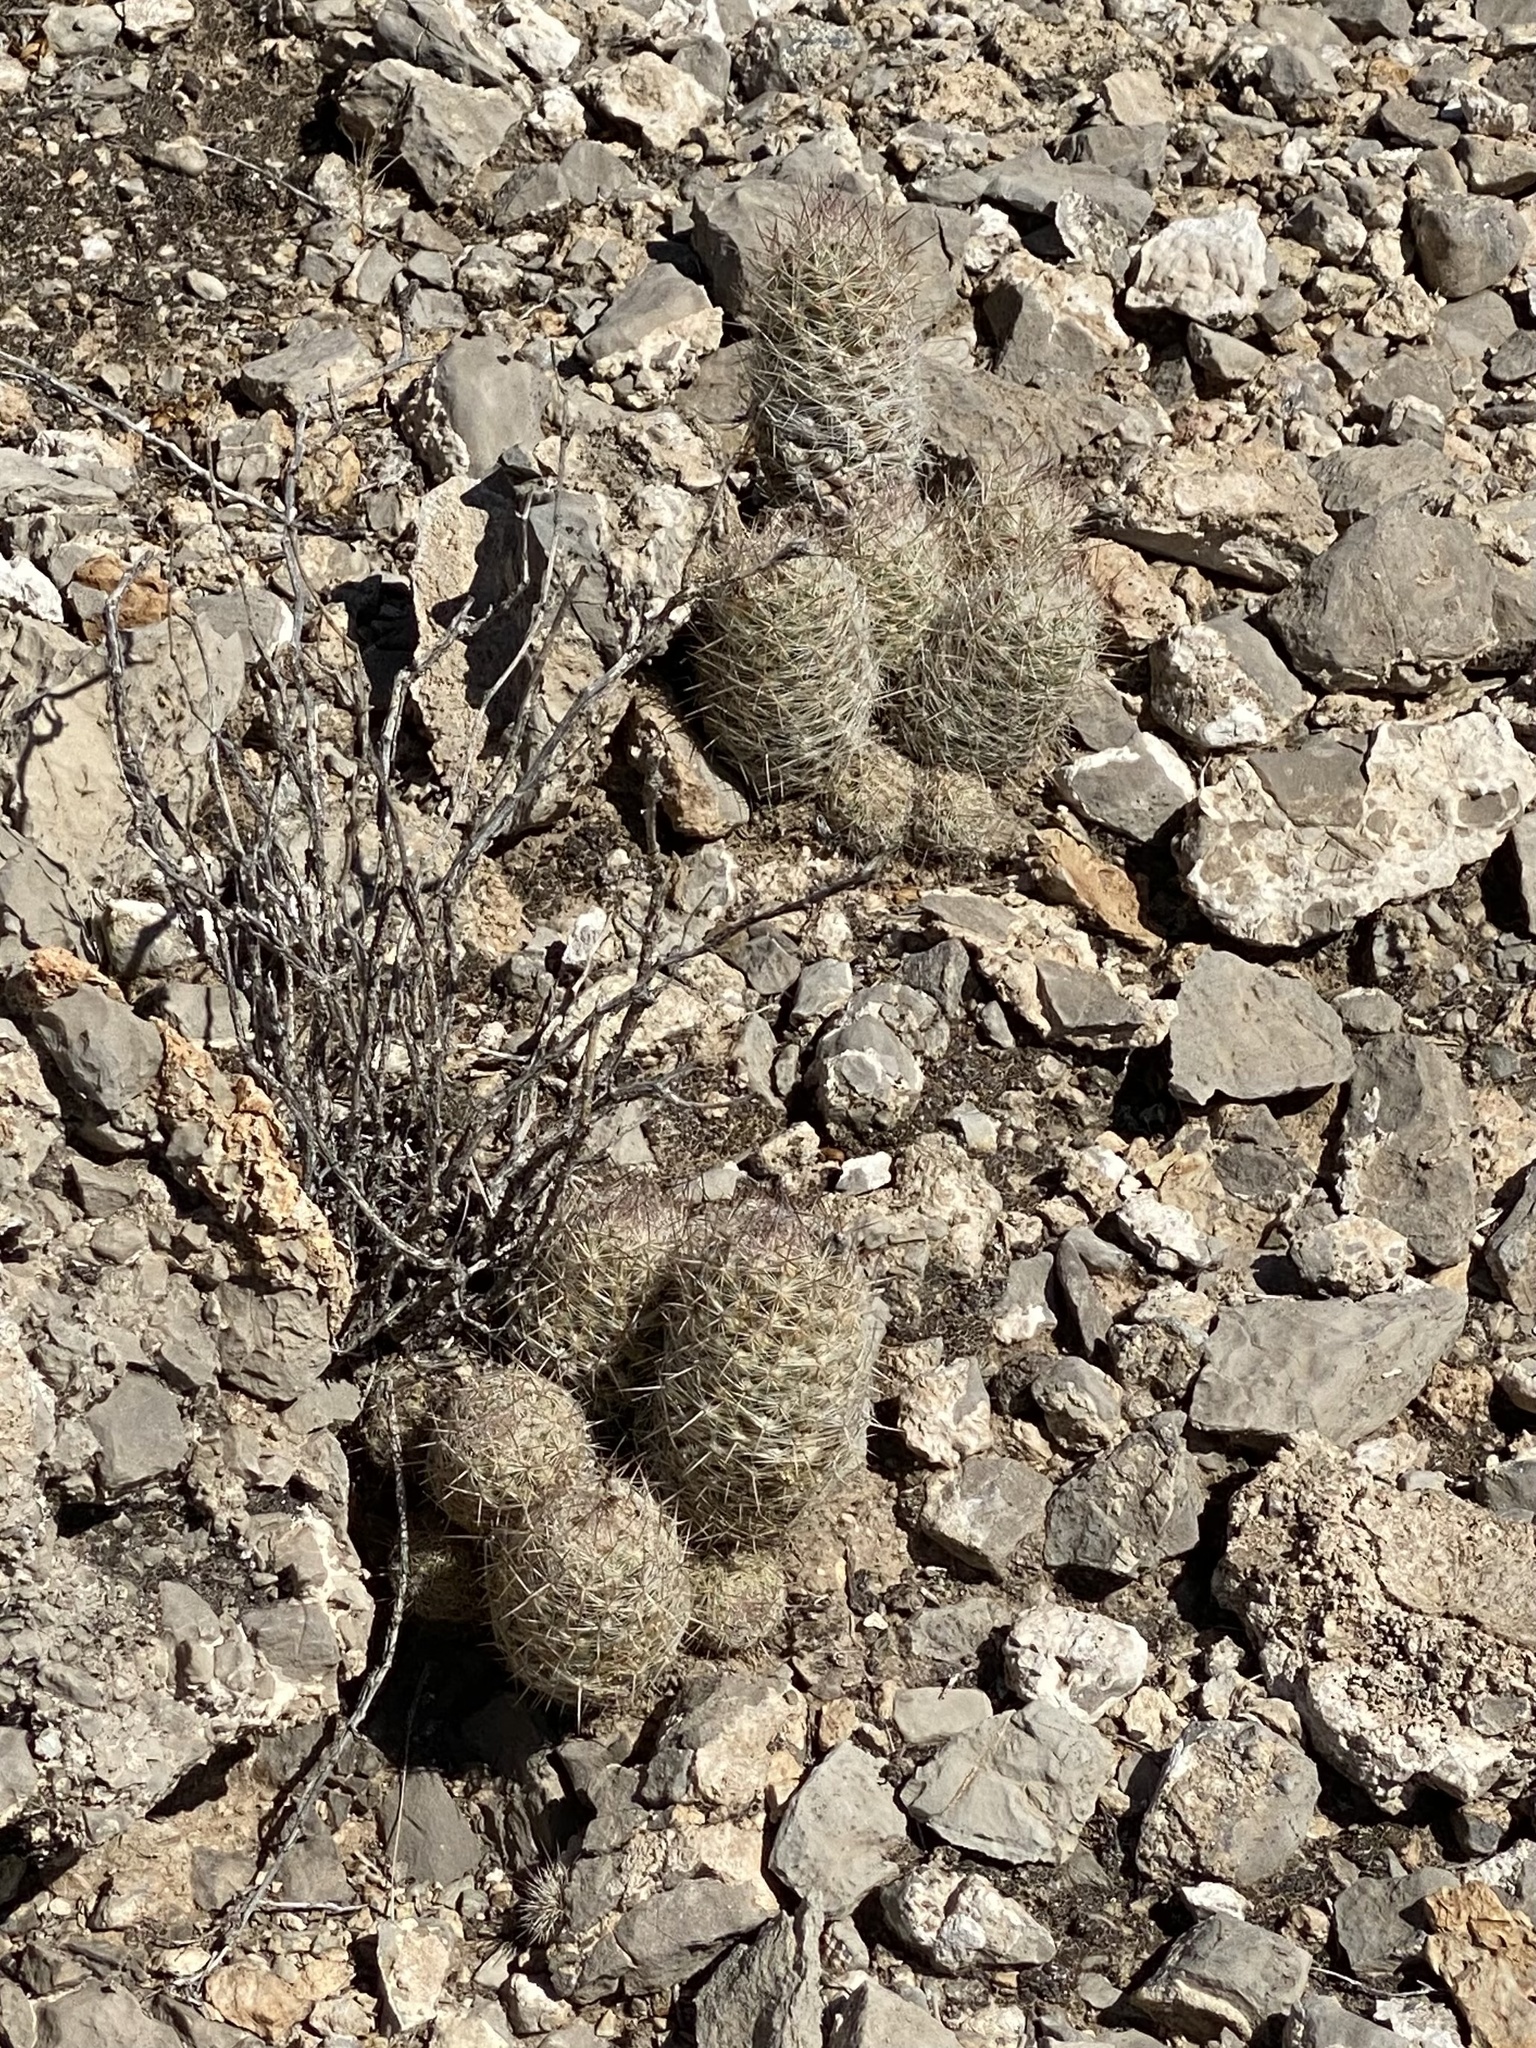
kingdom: Plantae
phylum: Tracheophyta
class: Magnoliopsida
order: Caryophyllales
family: Cactaceae
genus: Pelecyphora
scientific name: Pelecyphora tuberculosa
